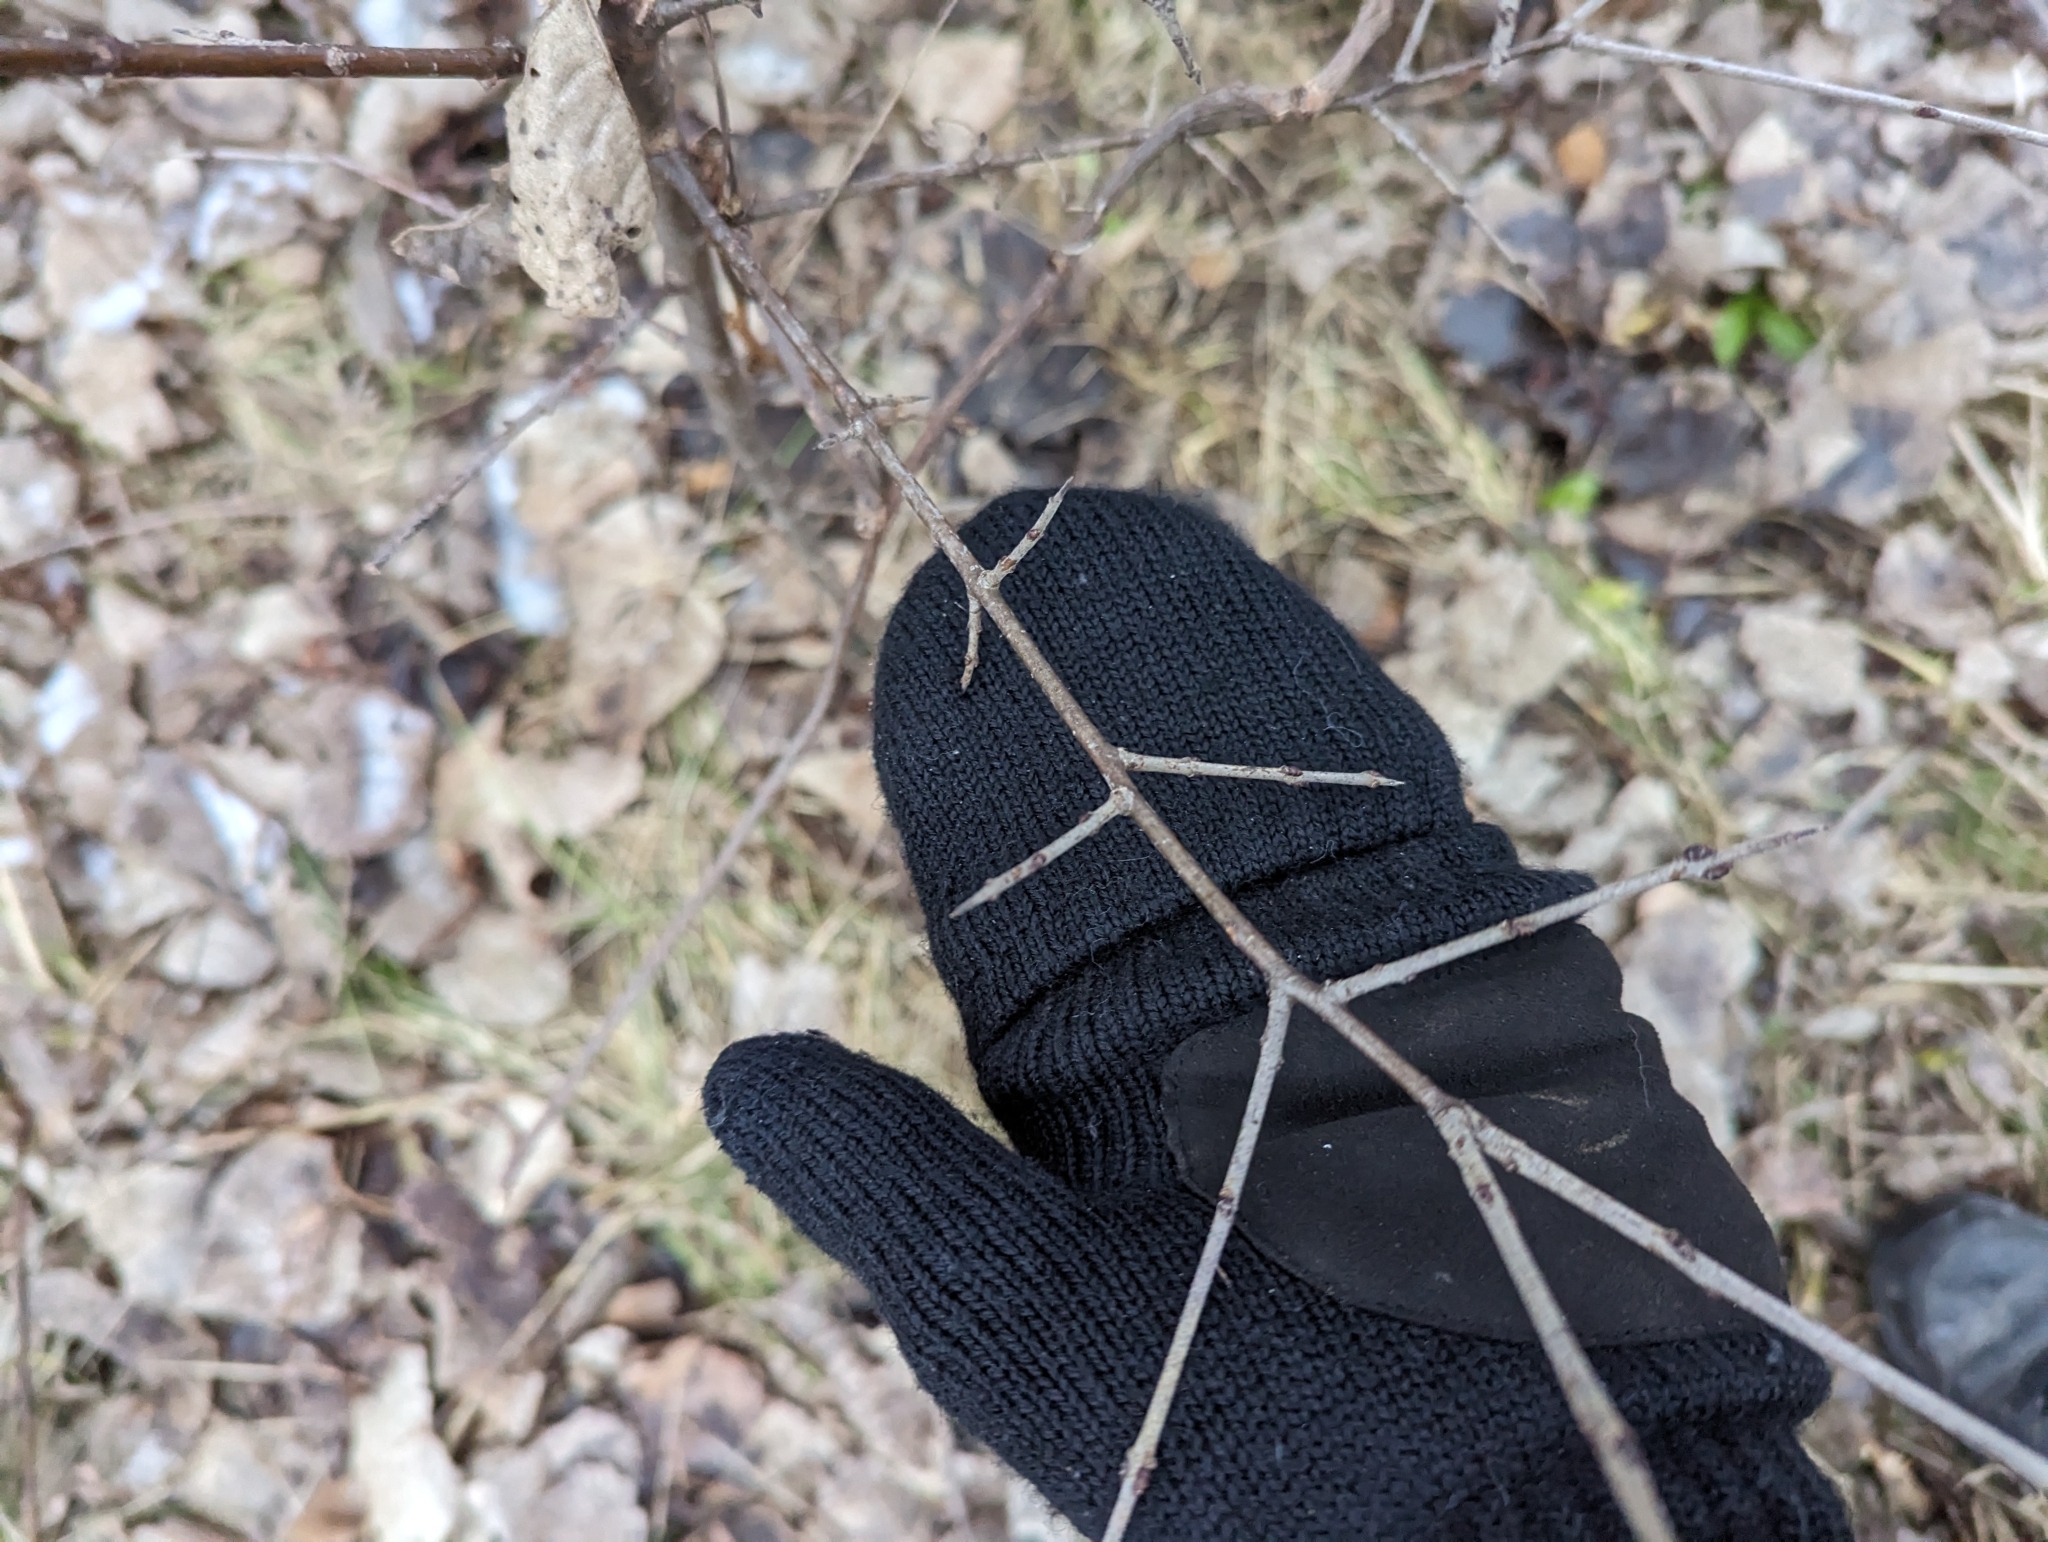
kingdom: Plantae
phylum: Tracheophyta
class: Magnoliopsida
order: Rosales
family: Rhamnaceae
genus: Rhamnus
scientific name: Rhamnus cathartica
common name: Common buckthorn
